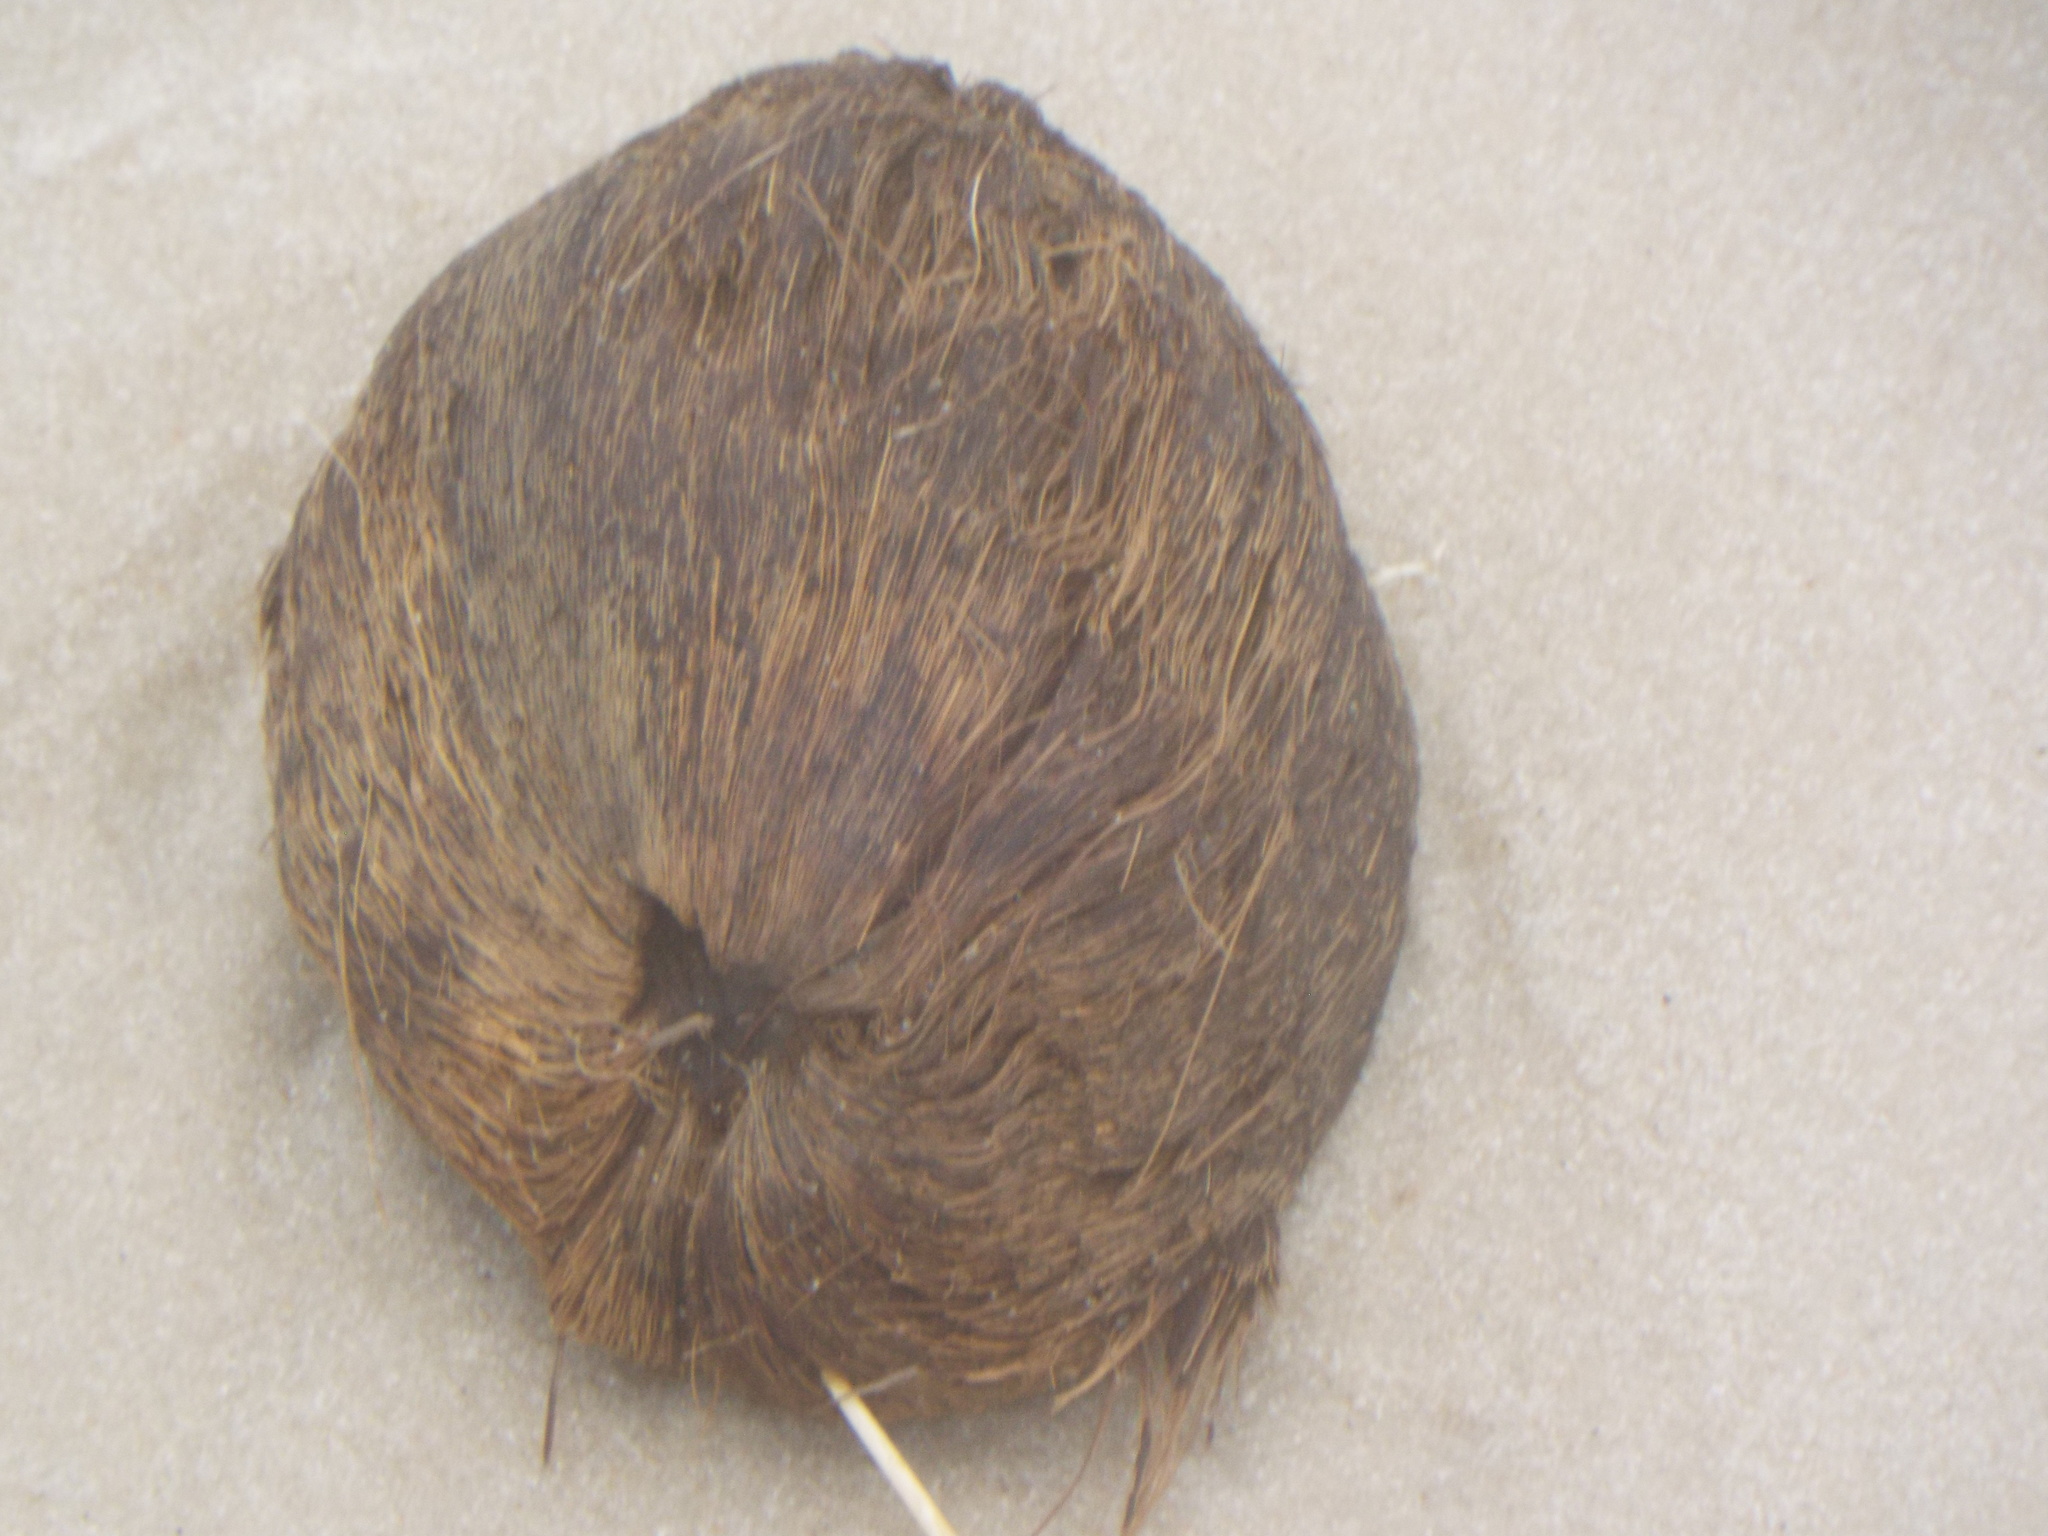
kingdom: Plantae
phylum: Tracheophyta
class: Liliopsida
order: Arecales
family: Arecaceae
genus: Cocos
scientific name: Cocos nucifera
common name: Coconut palm
